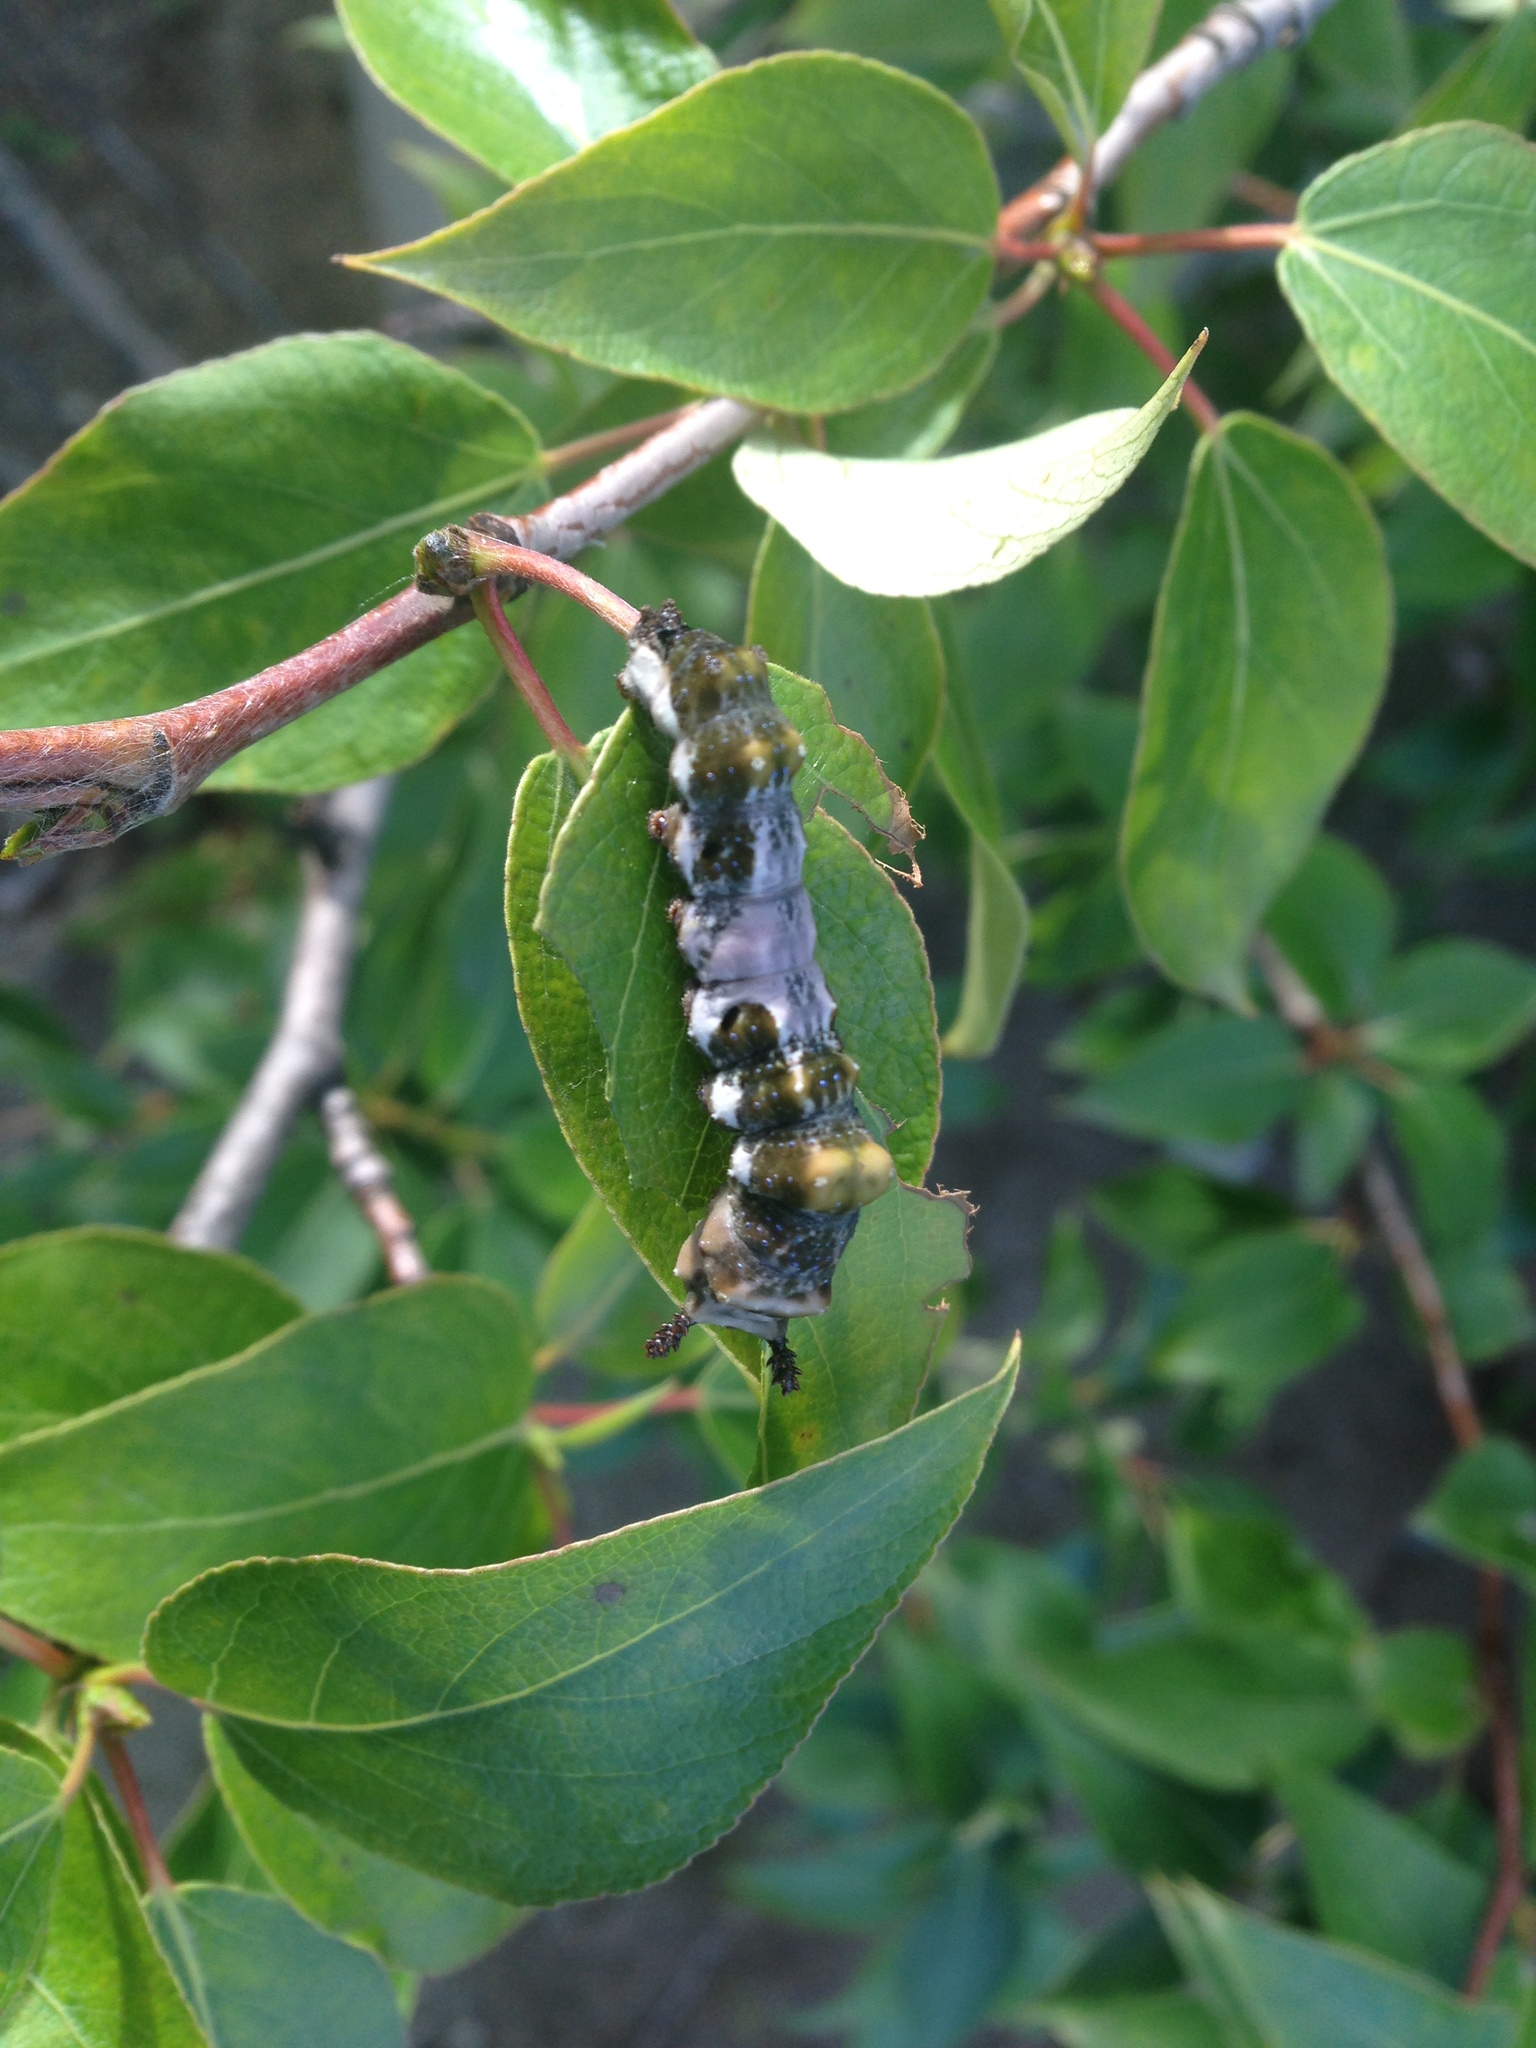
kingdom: Animalia
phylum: Arthropoda
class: Insecta
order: Lepidoptera
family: Nymphalidae
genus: Limenitis
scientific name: Limenitis
